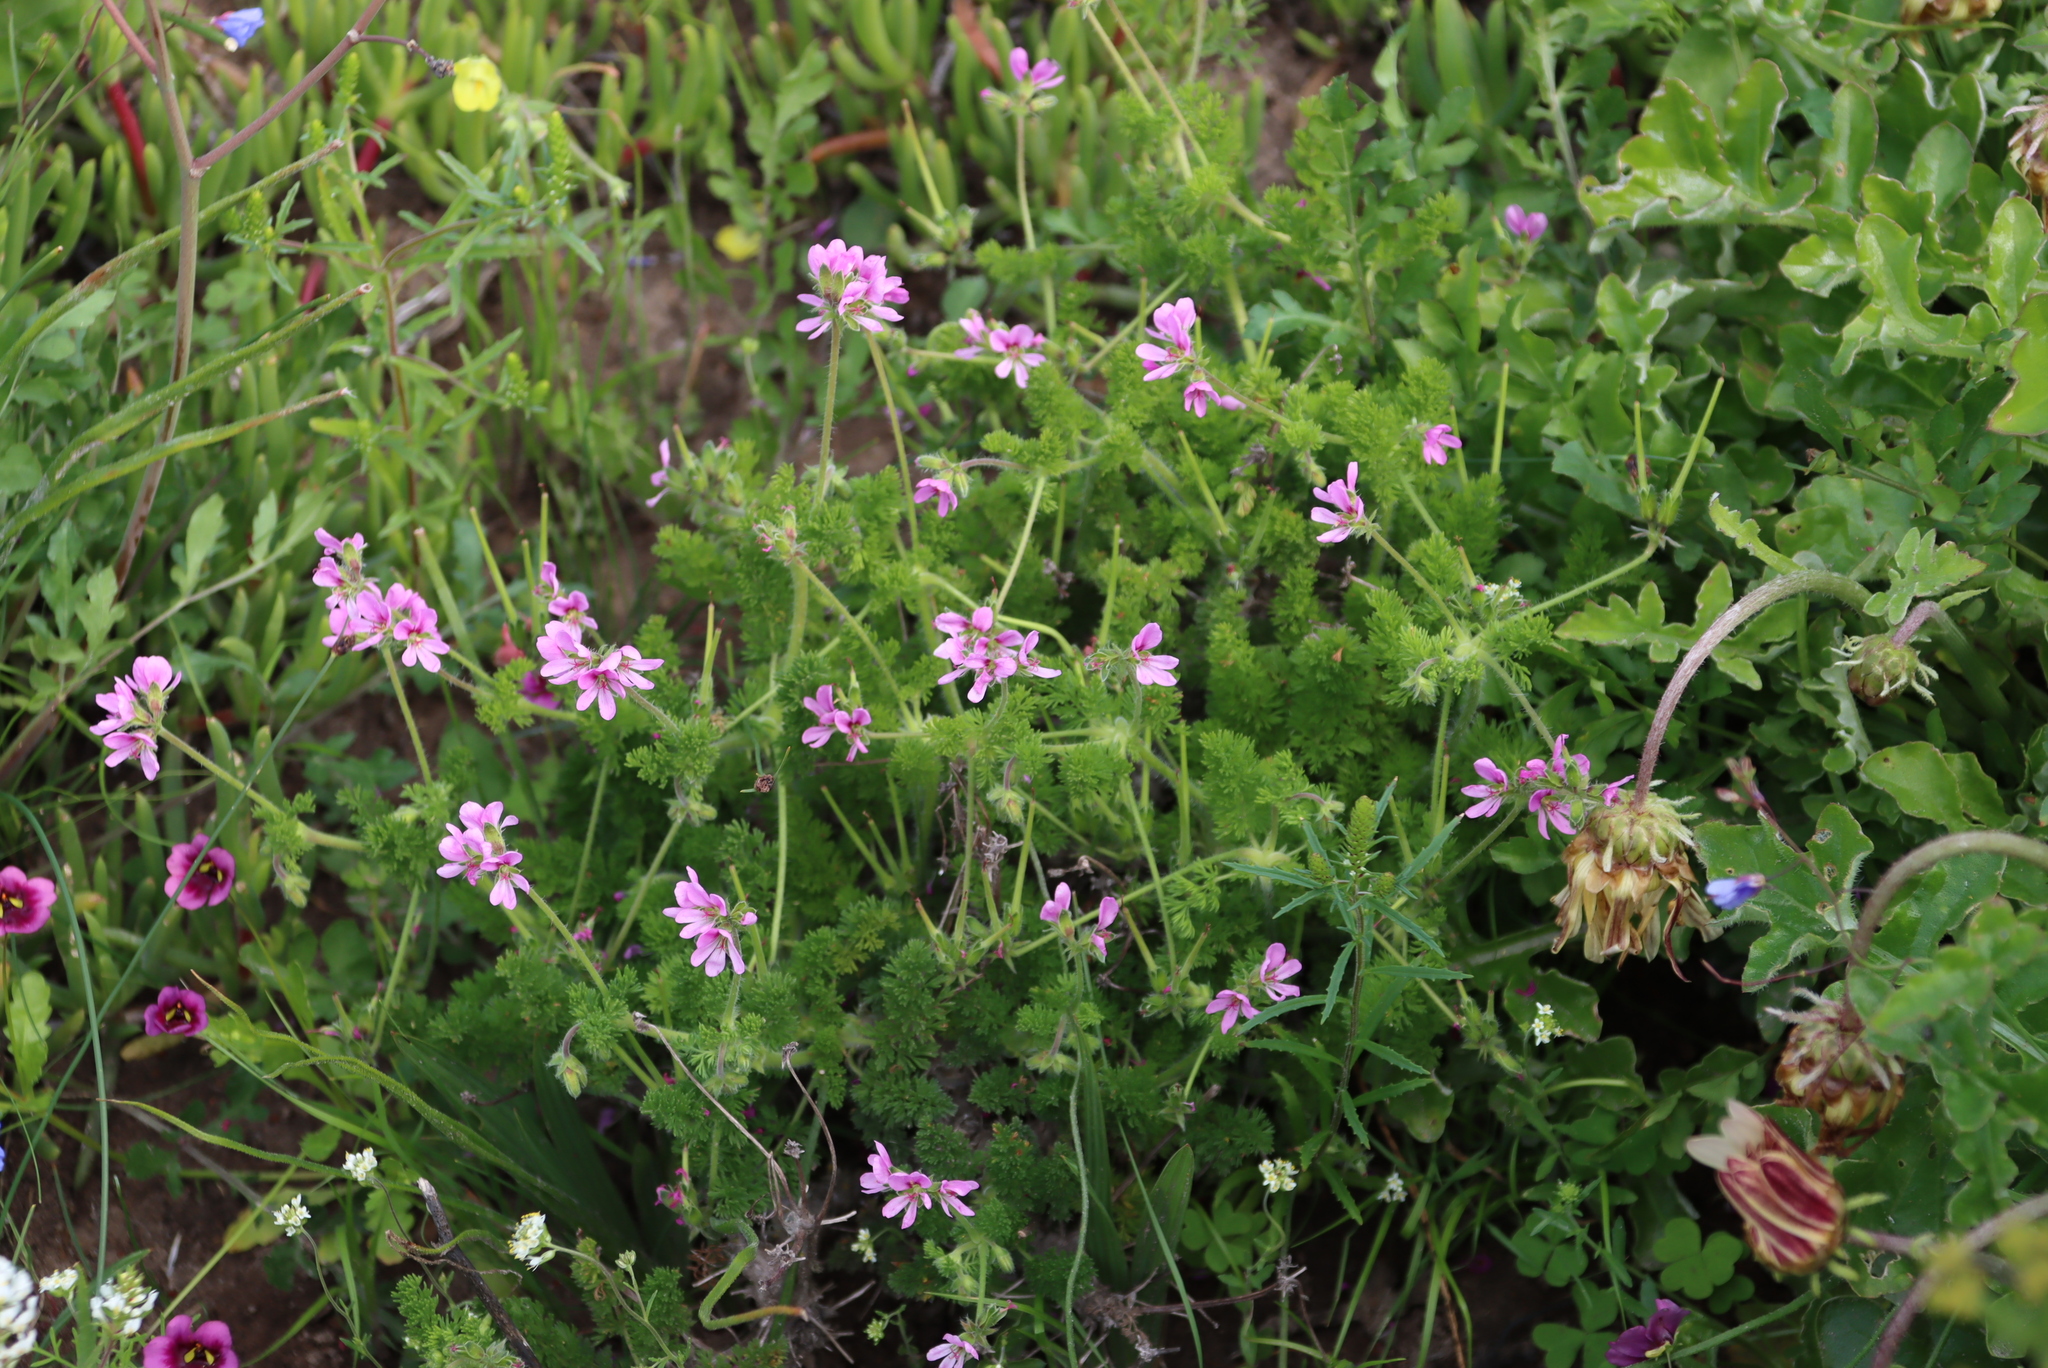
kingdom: Plantae
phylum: Tracheophyta
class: Magnoliopsida
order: Geraniales
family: Geraniaceae
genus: Pelargonium
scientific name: Pelargonium hirtum
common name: Fine-leaf pelargonium
